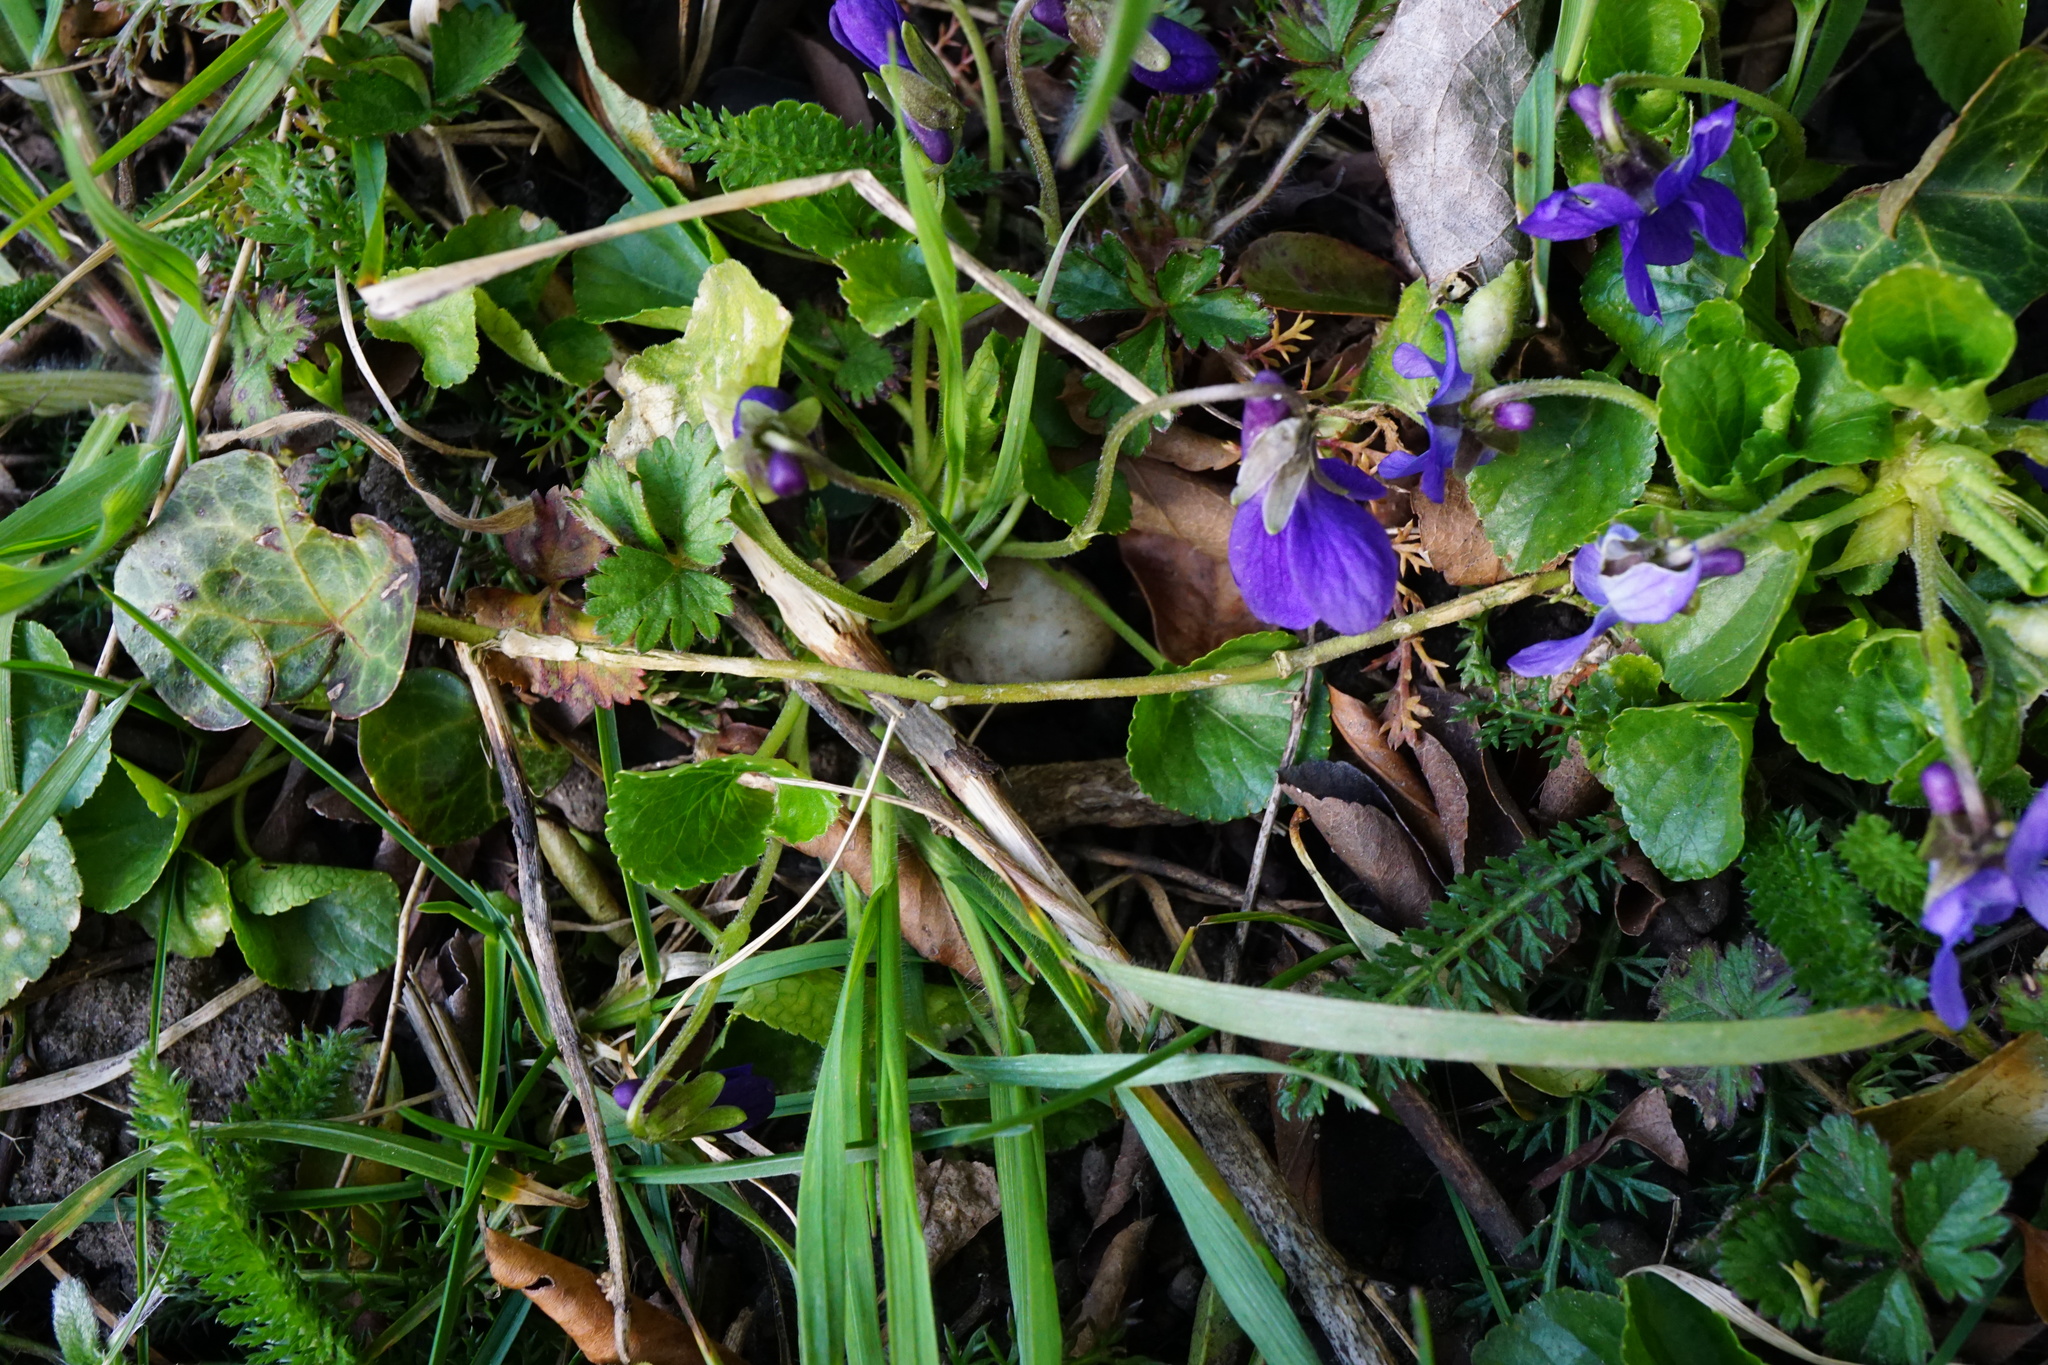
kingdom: Plantae
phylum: Tracheophyta
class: Magnoliopsida
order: Malpighiales
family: Violaceae
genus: Viola
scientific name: Viola odorata
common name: Sweet violet
